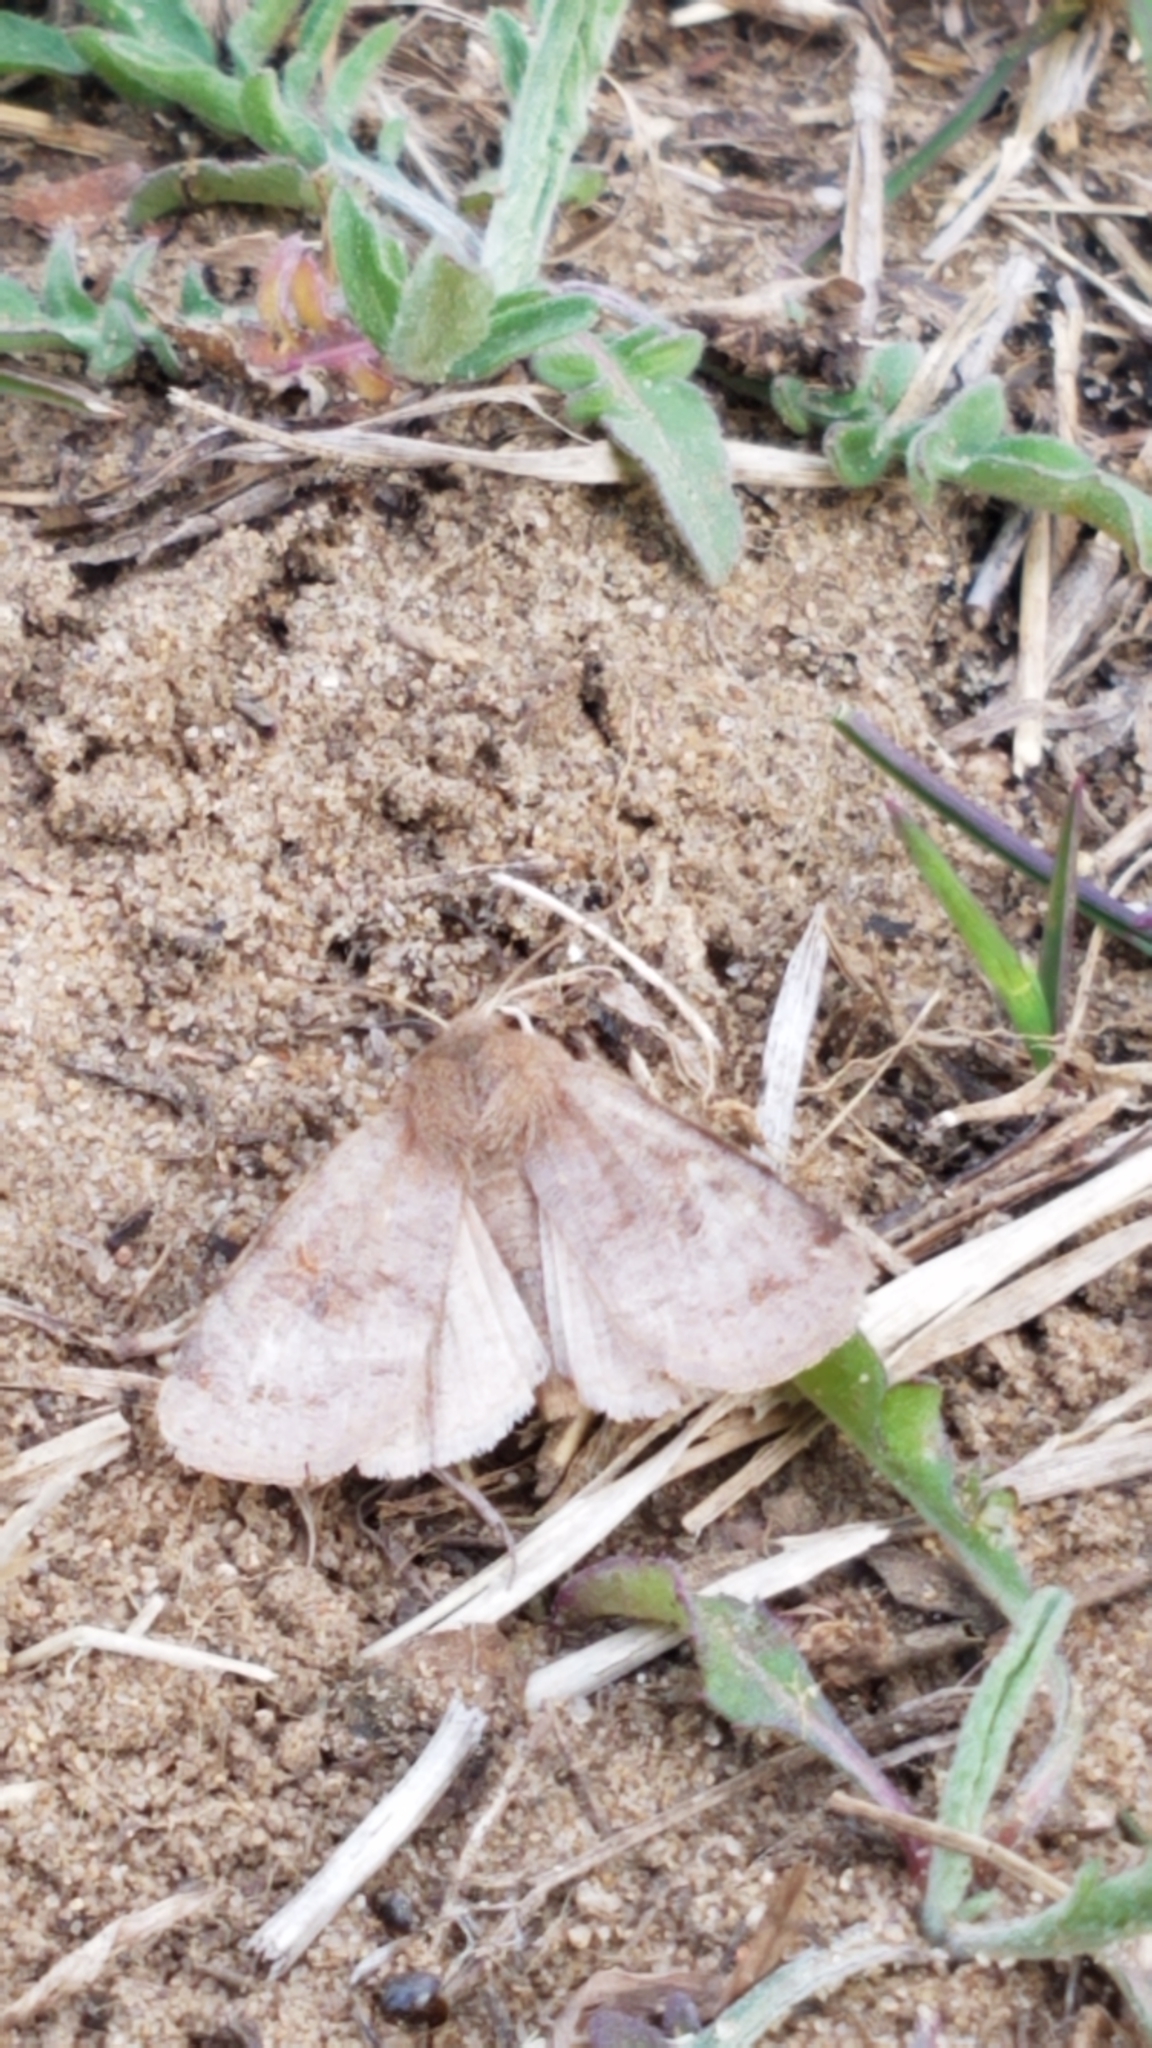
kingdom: Animalia
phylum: Arthropoda
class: Insecta
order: Lepidoptera
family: Noctuidae
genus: Orthosia
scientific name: Orthosia hibisci
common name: Green fruitworm
